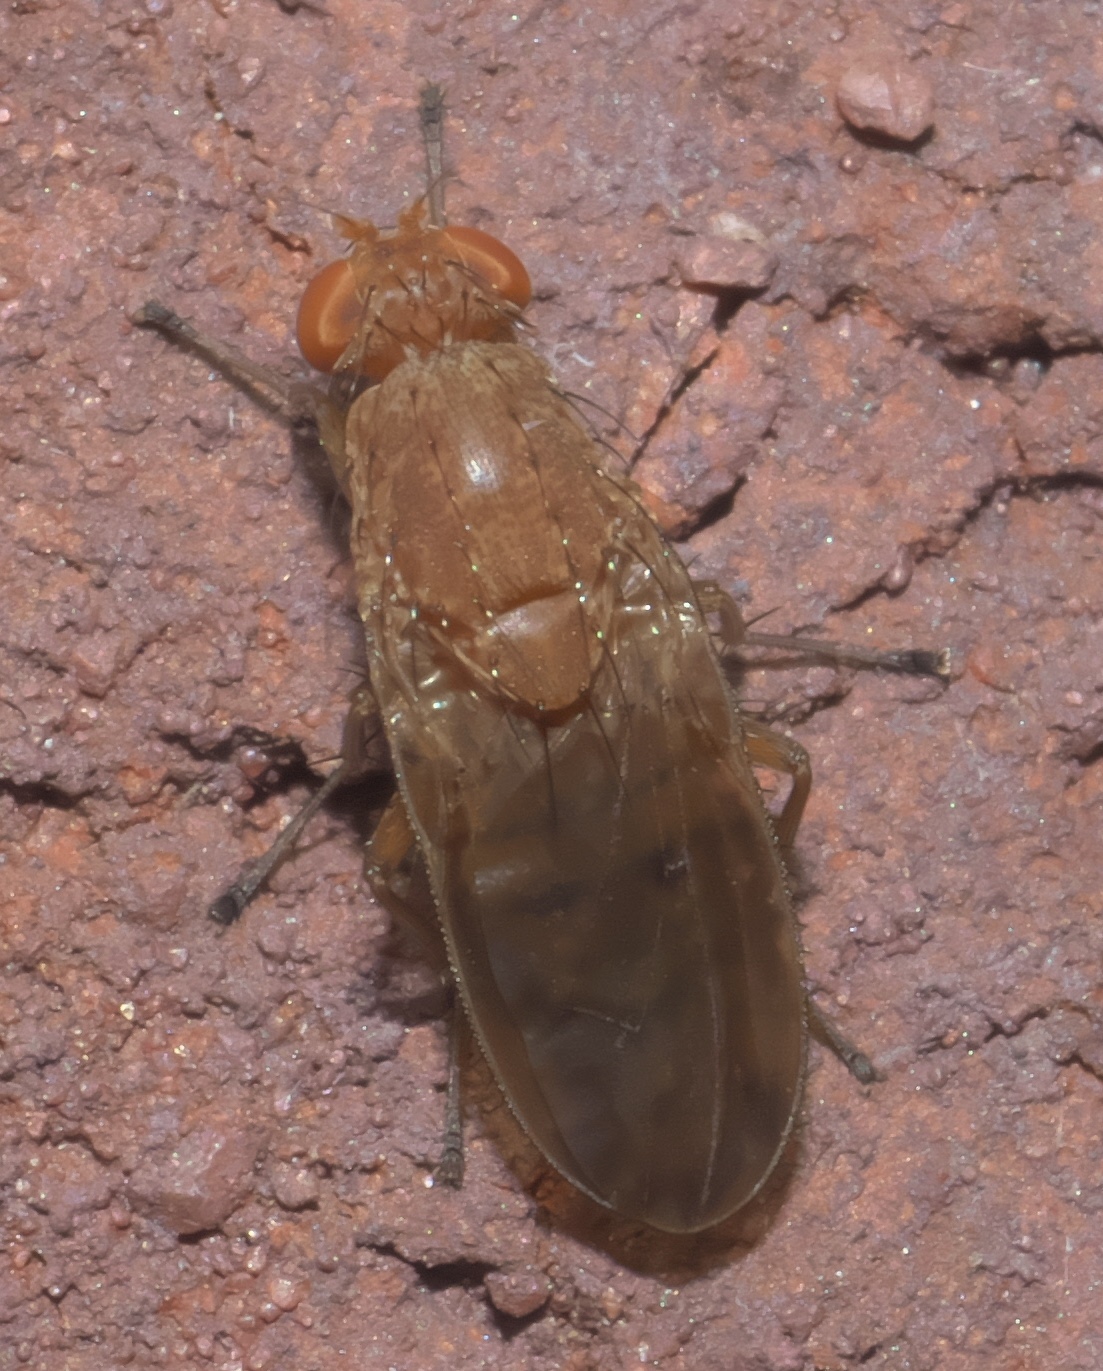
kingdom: Animalia
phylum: Arthropoda
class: Insecta
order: Diptera
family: Heleomyzidae
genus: Suillia
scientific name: Suillia quinquepunctata
